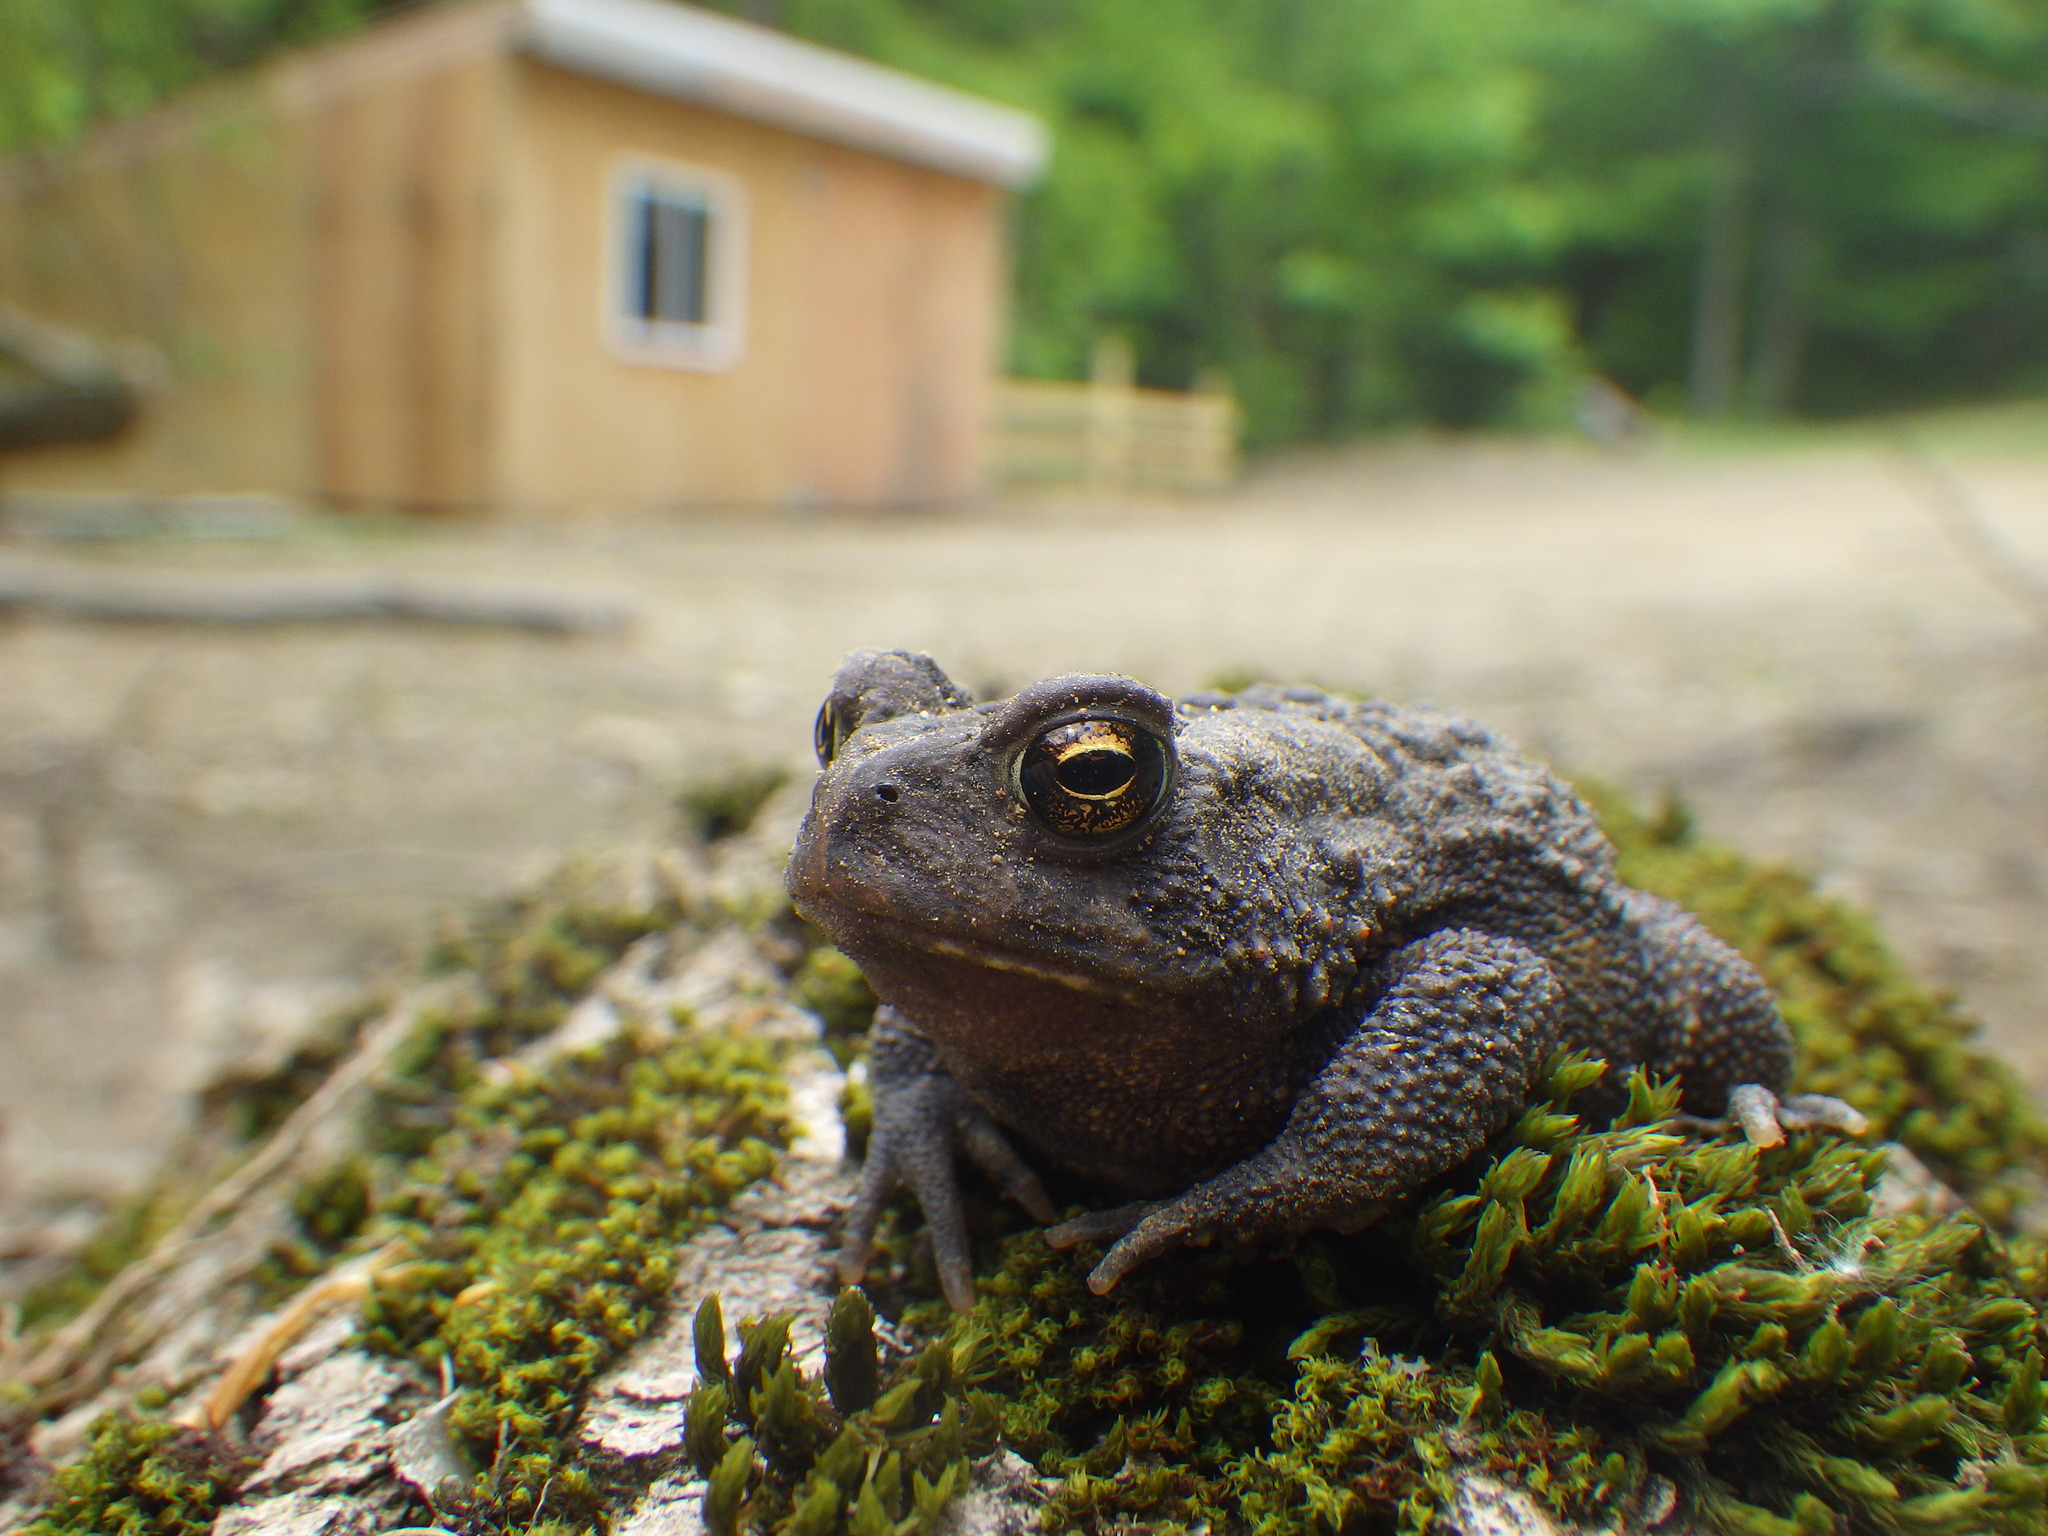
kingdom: Animalia
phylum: Chordata
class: Amphibia
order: Anura
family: Bufonidae
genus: Anaxyrus
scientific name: Anaxyrus americanus
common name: American toad
